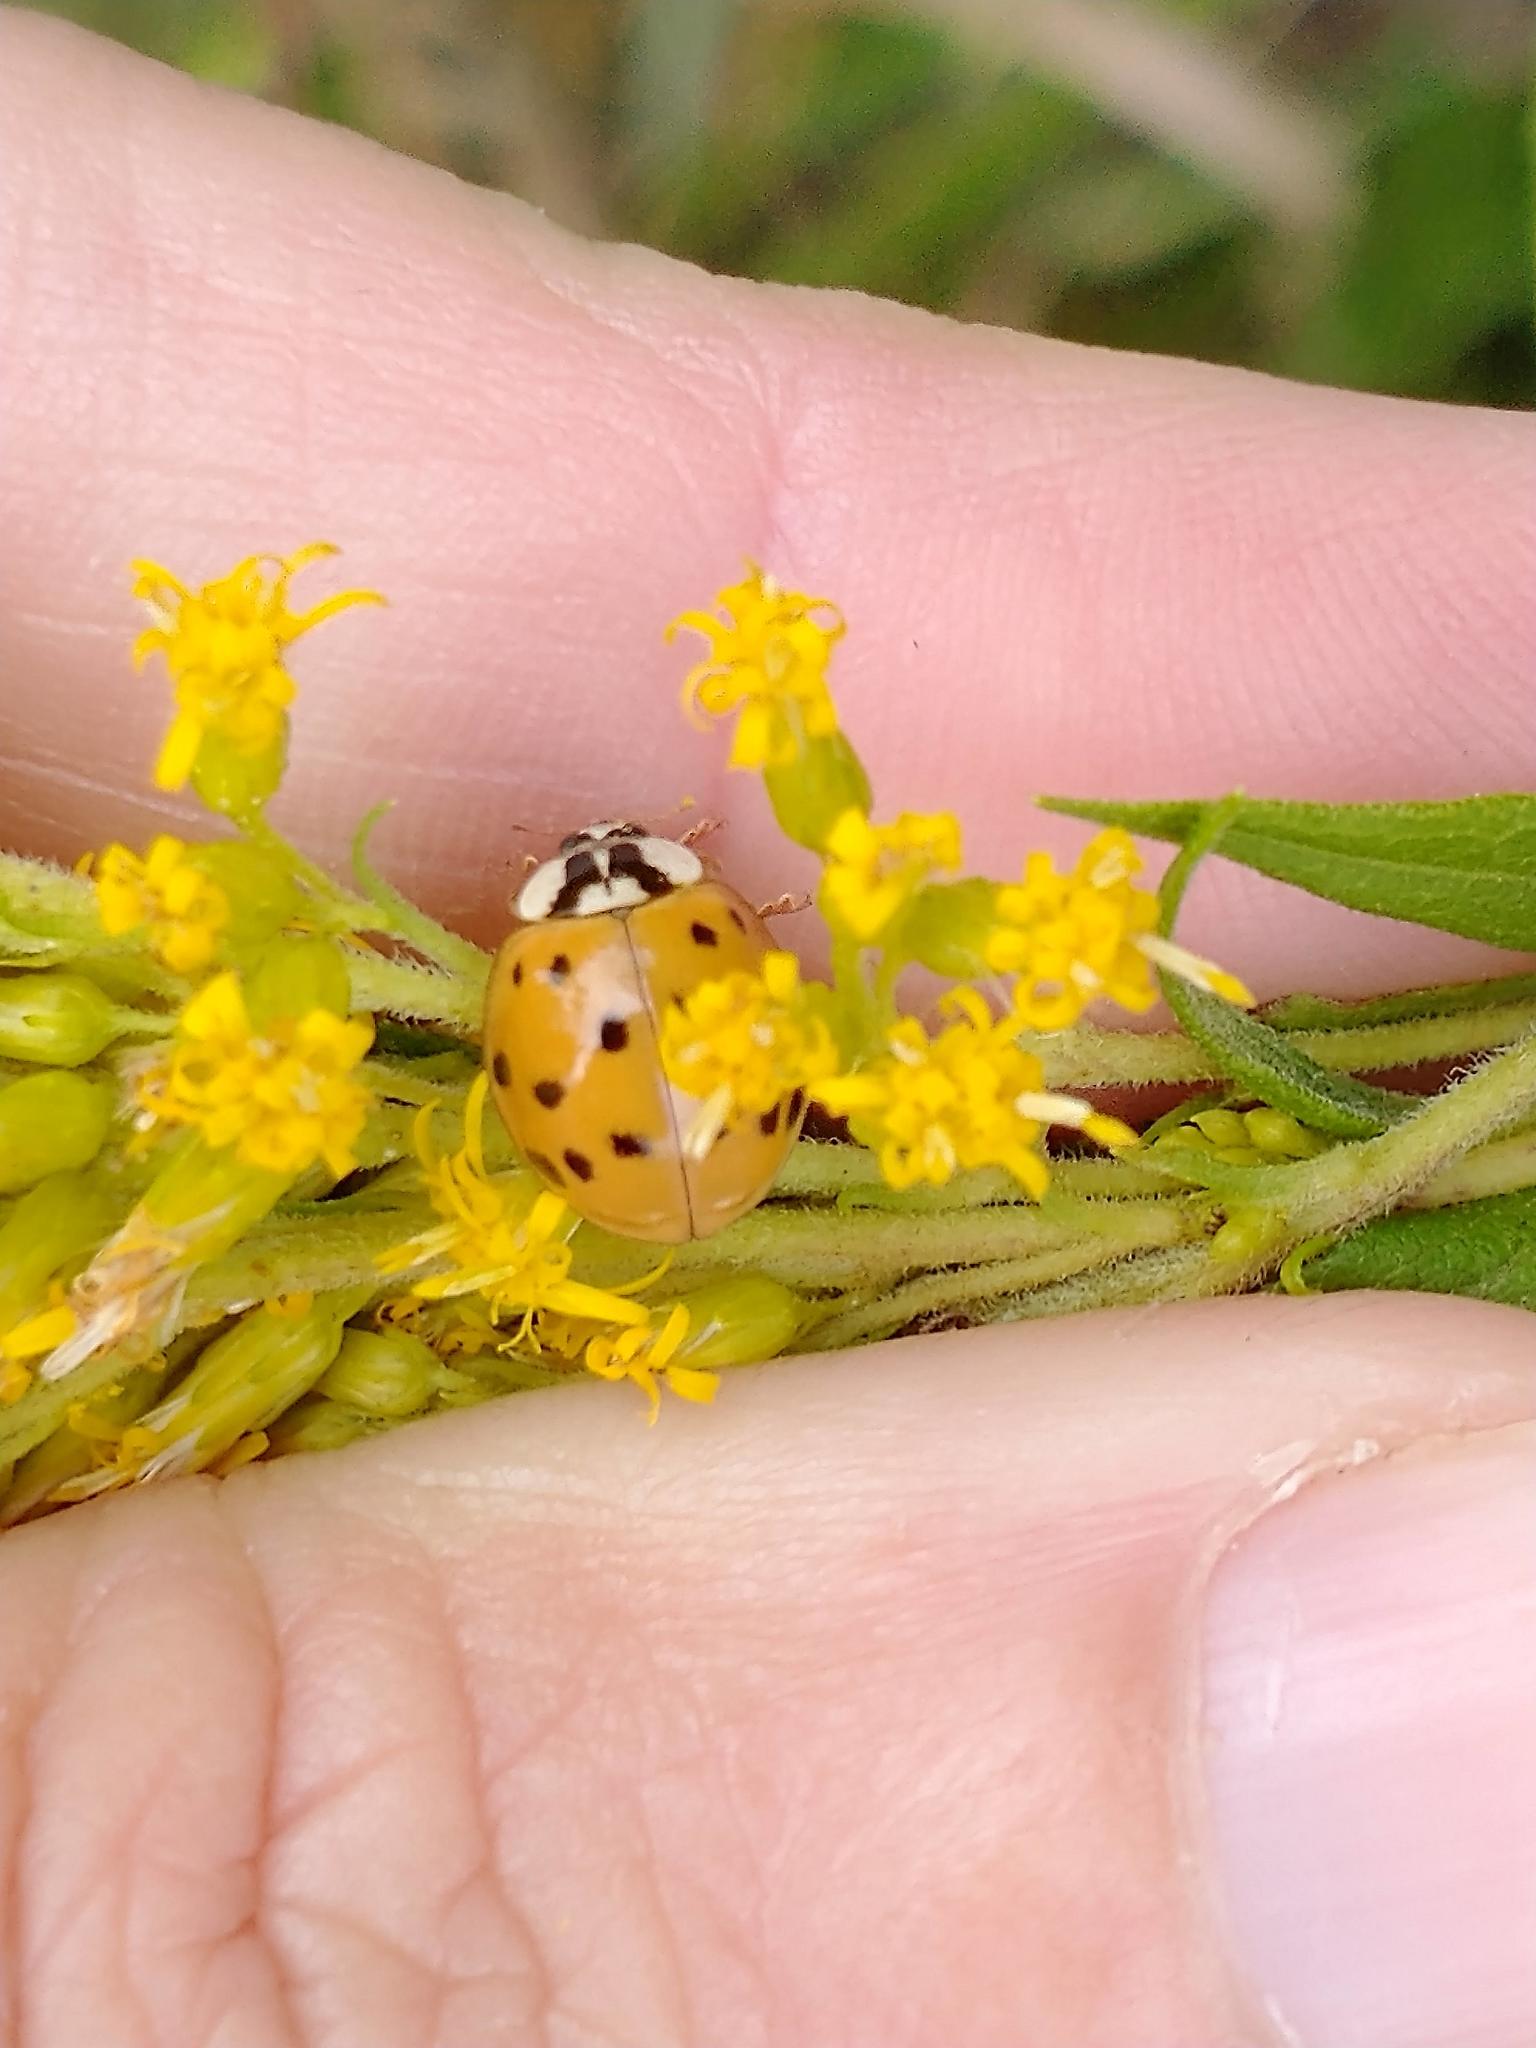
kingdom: Animalia
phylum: Arthropoda
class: Insecta
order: Coleoptera
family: Coccinellidae
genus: Harmonia
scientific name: Harmonia axyridis
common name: Harlequin ladybird
